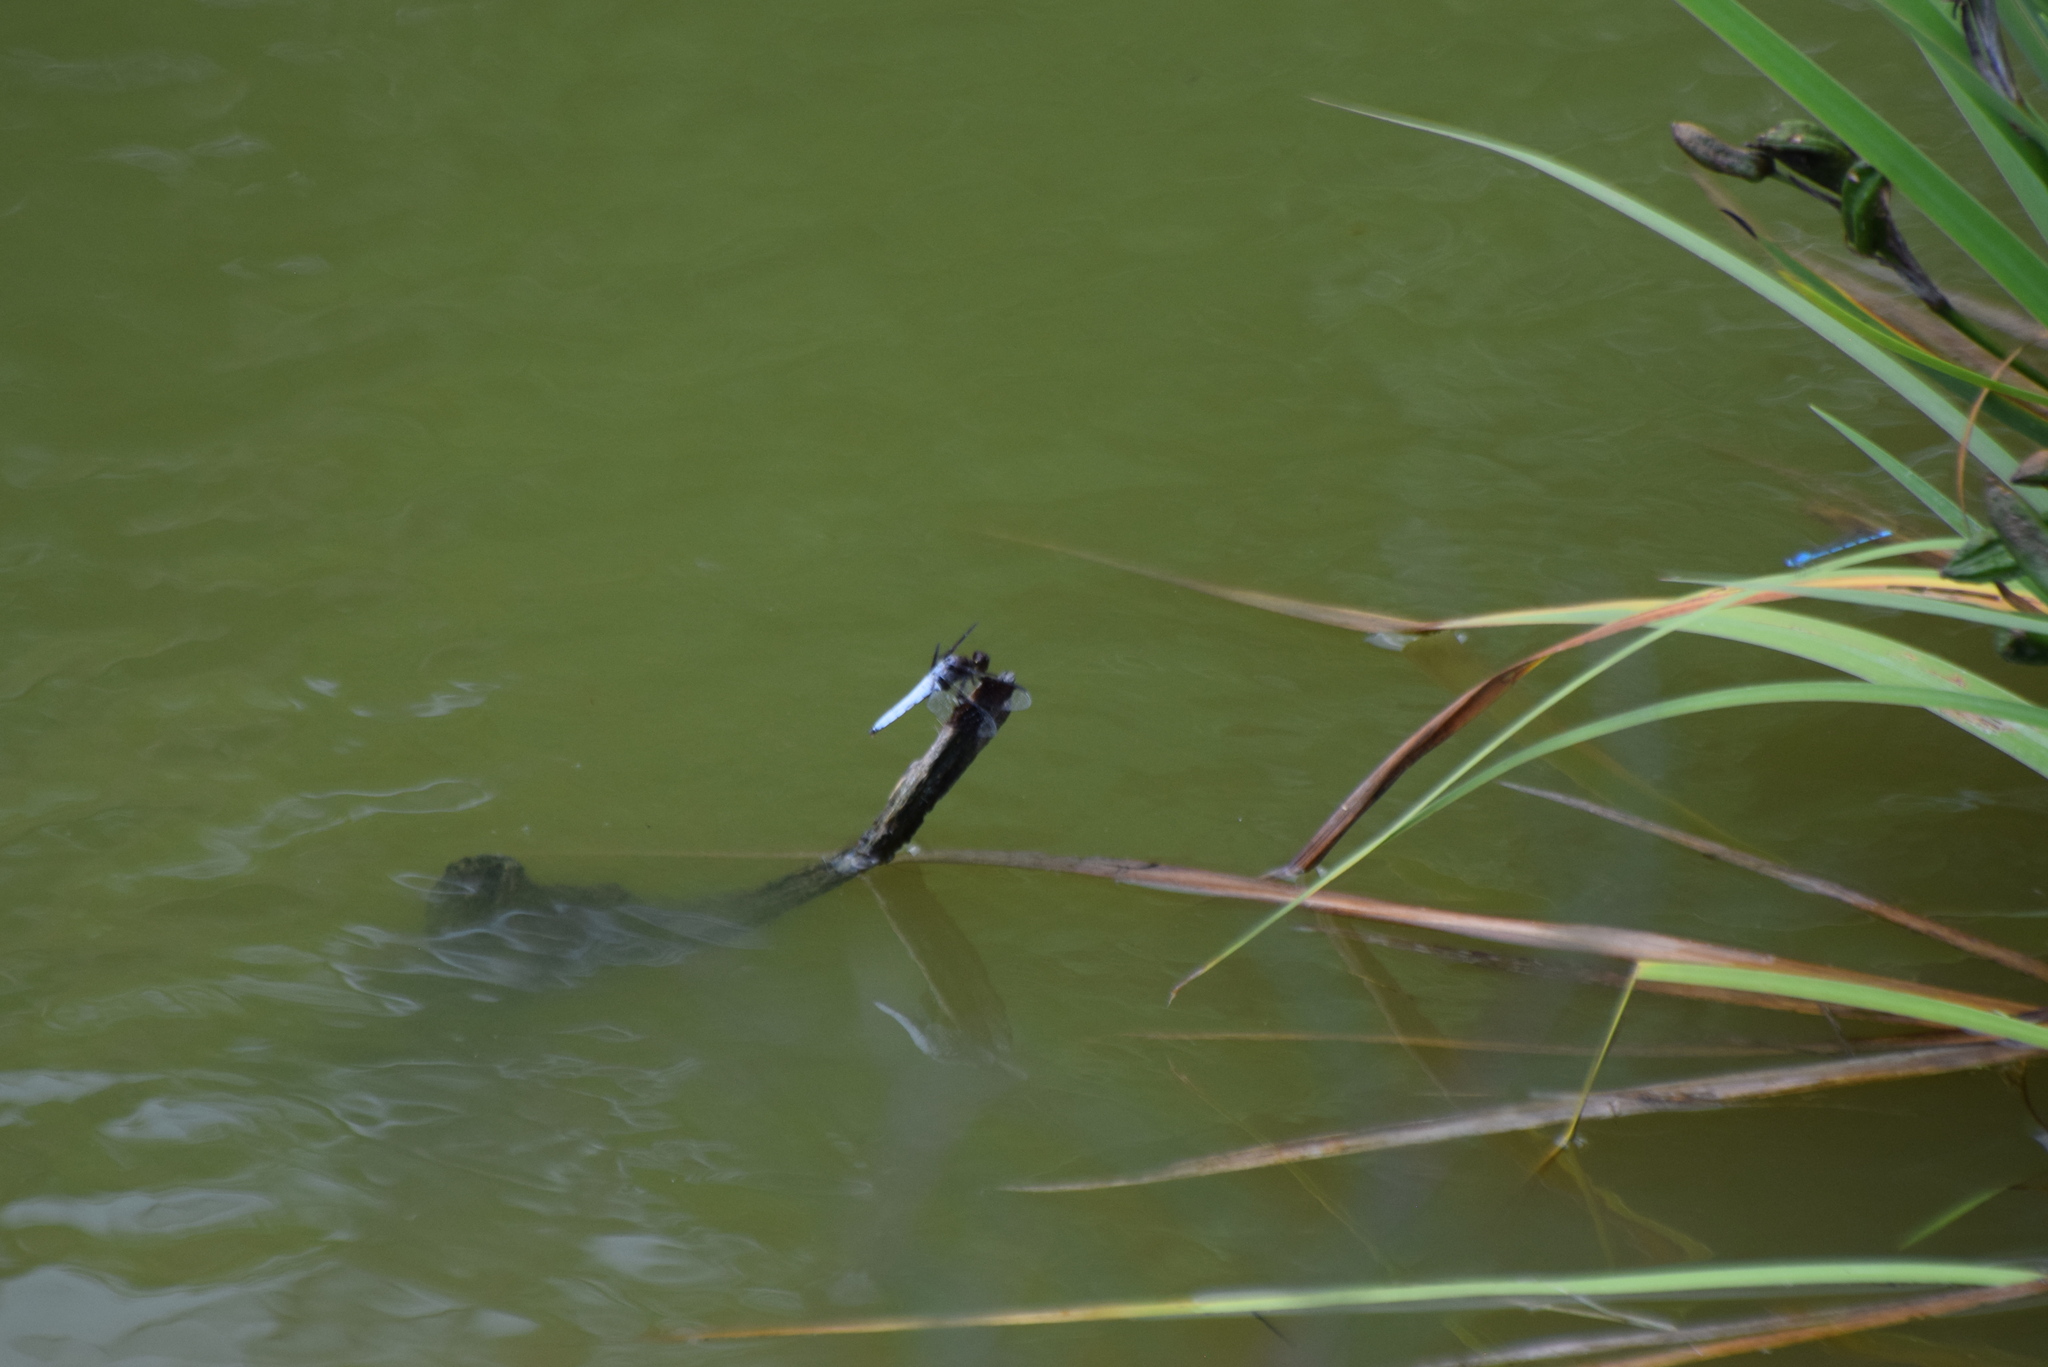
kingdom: Animalia
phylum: Arthropoda
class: Insecta
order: Odonata
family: Libellulidae
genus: Plathemis
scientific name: Plathemis lydia
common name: Common whitetail
